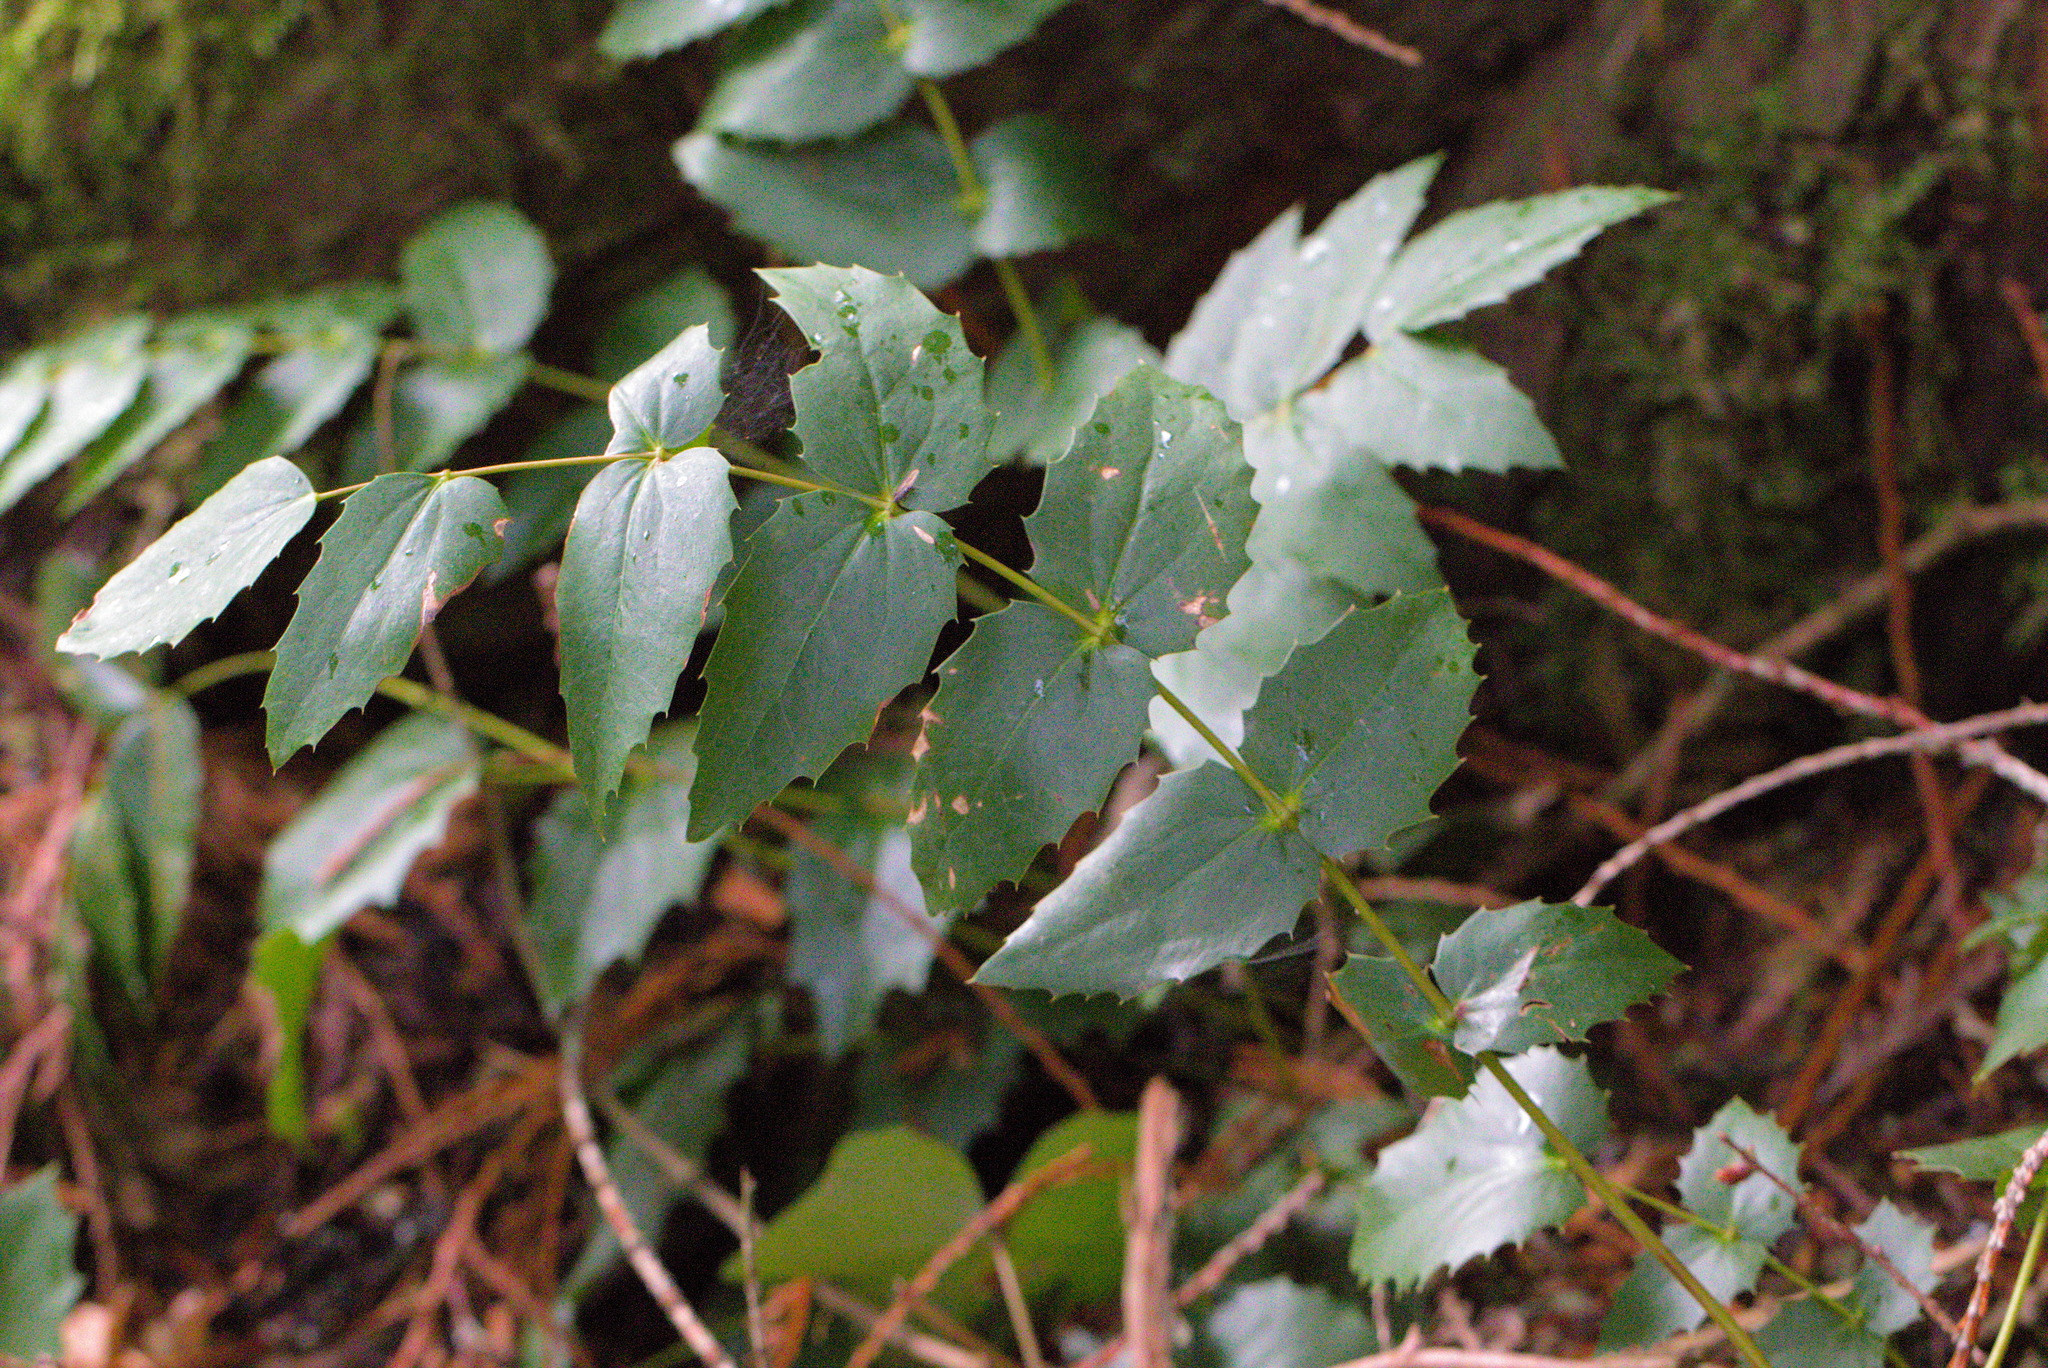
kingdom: Plantae
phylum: Tracheophyta
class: Magnoliopsida
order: Ranunculales
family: Berberidaceae
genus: Mahonia
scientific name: Mahonia nervosa
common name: Cascade oregon-grape
